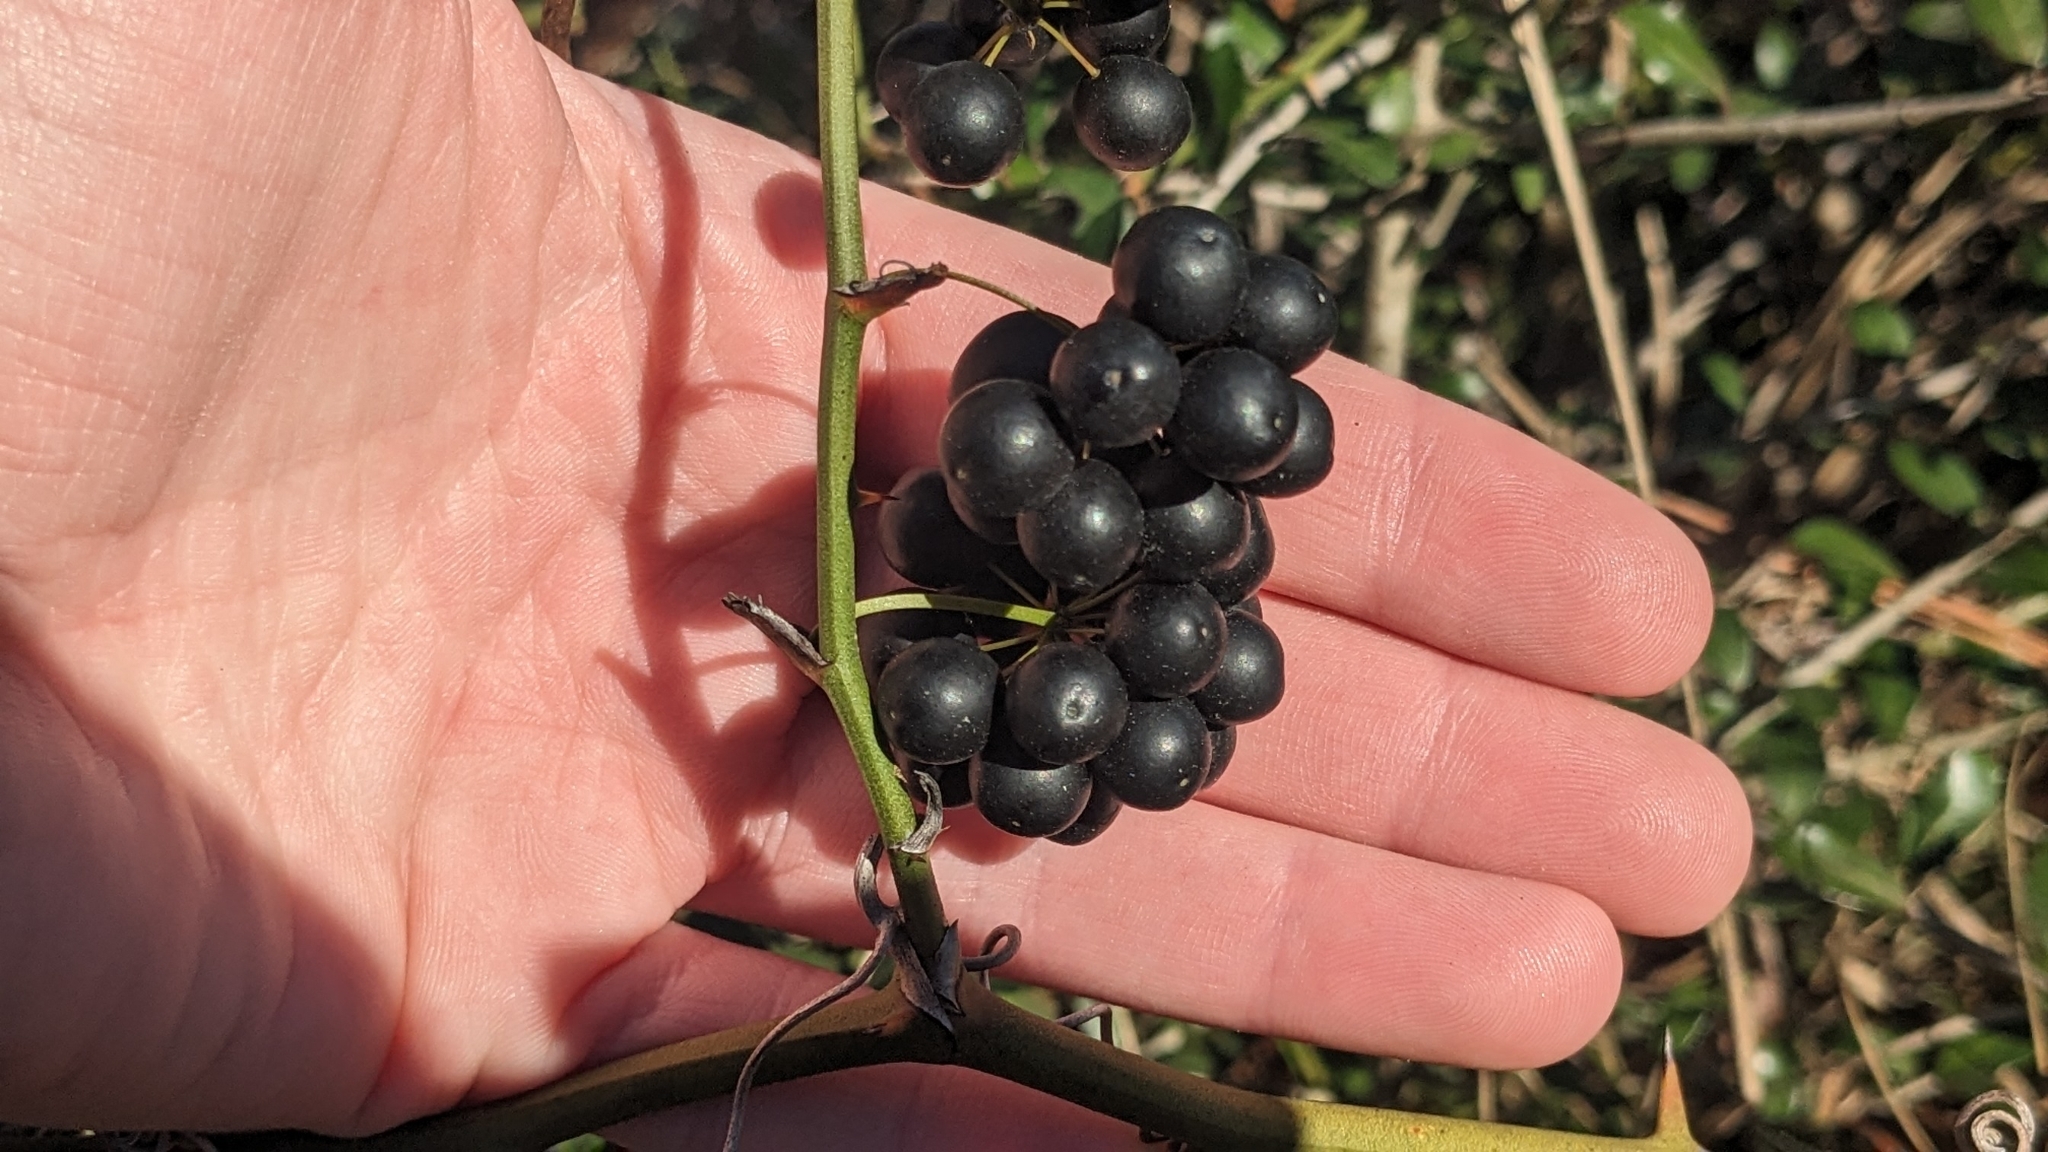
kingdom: Plantae
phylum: Tracheophyta
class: Liliopsida
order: Liliales
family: Smilacaceae
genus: Smilax
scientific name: Smilax bona-nox
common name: Catbrier
